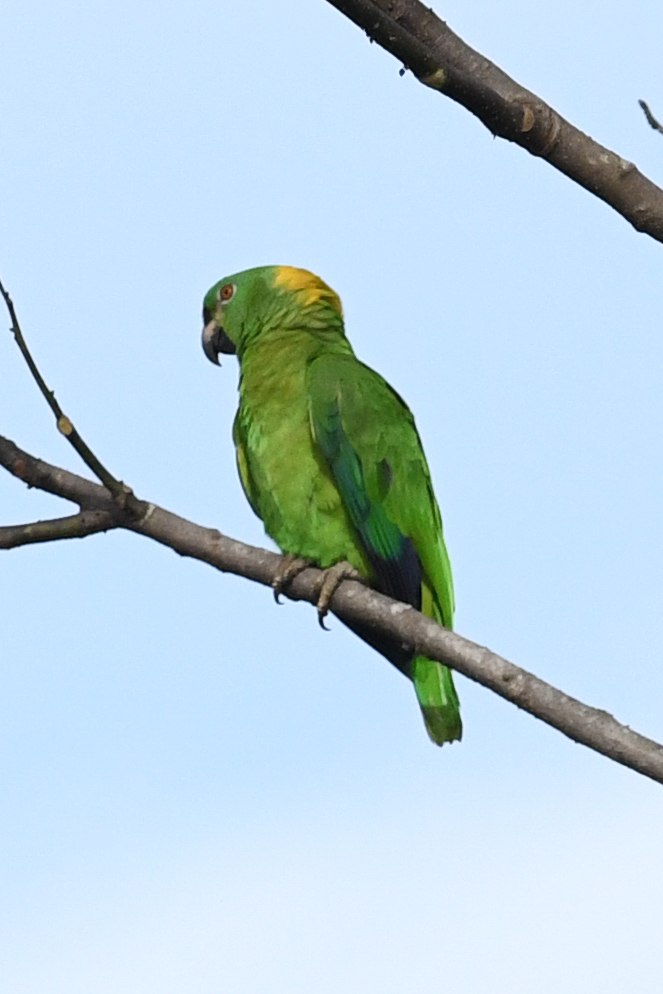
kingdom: Animalia
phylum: Chordata
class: Aves
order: Psittaciformes
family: Psittacidae
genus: Amazona
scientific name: Amazona auropalliata
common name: Yellow-naped amazon
